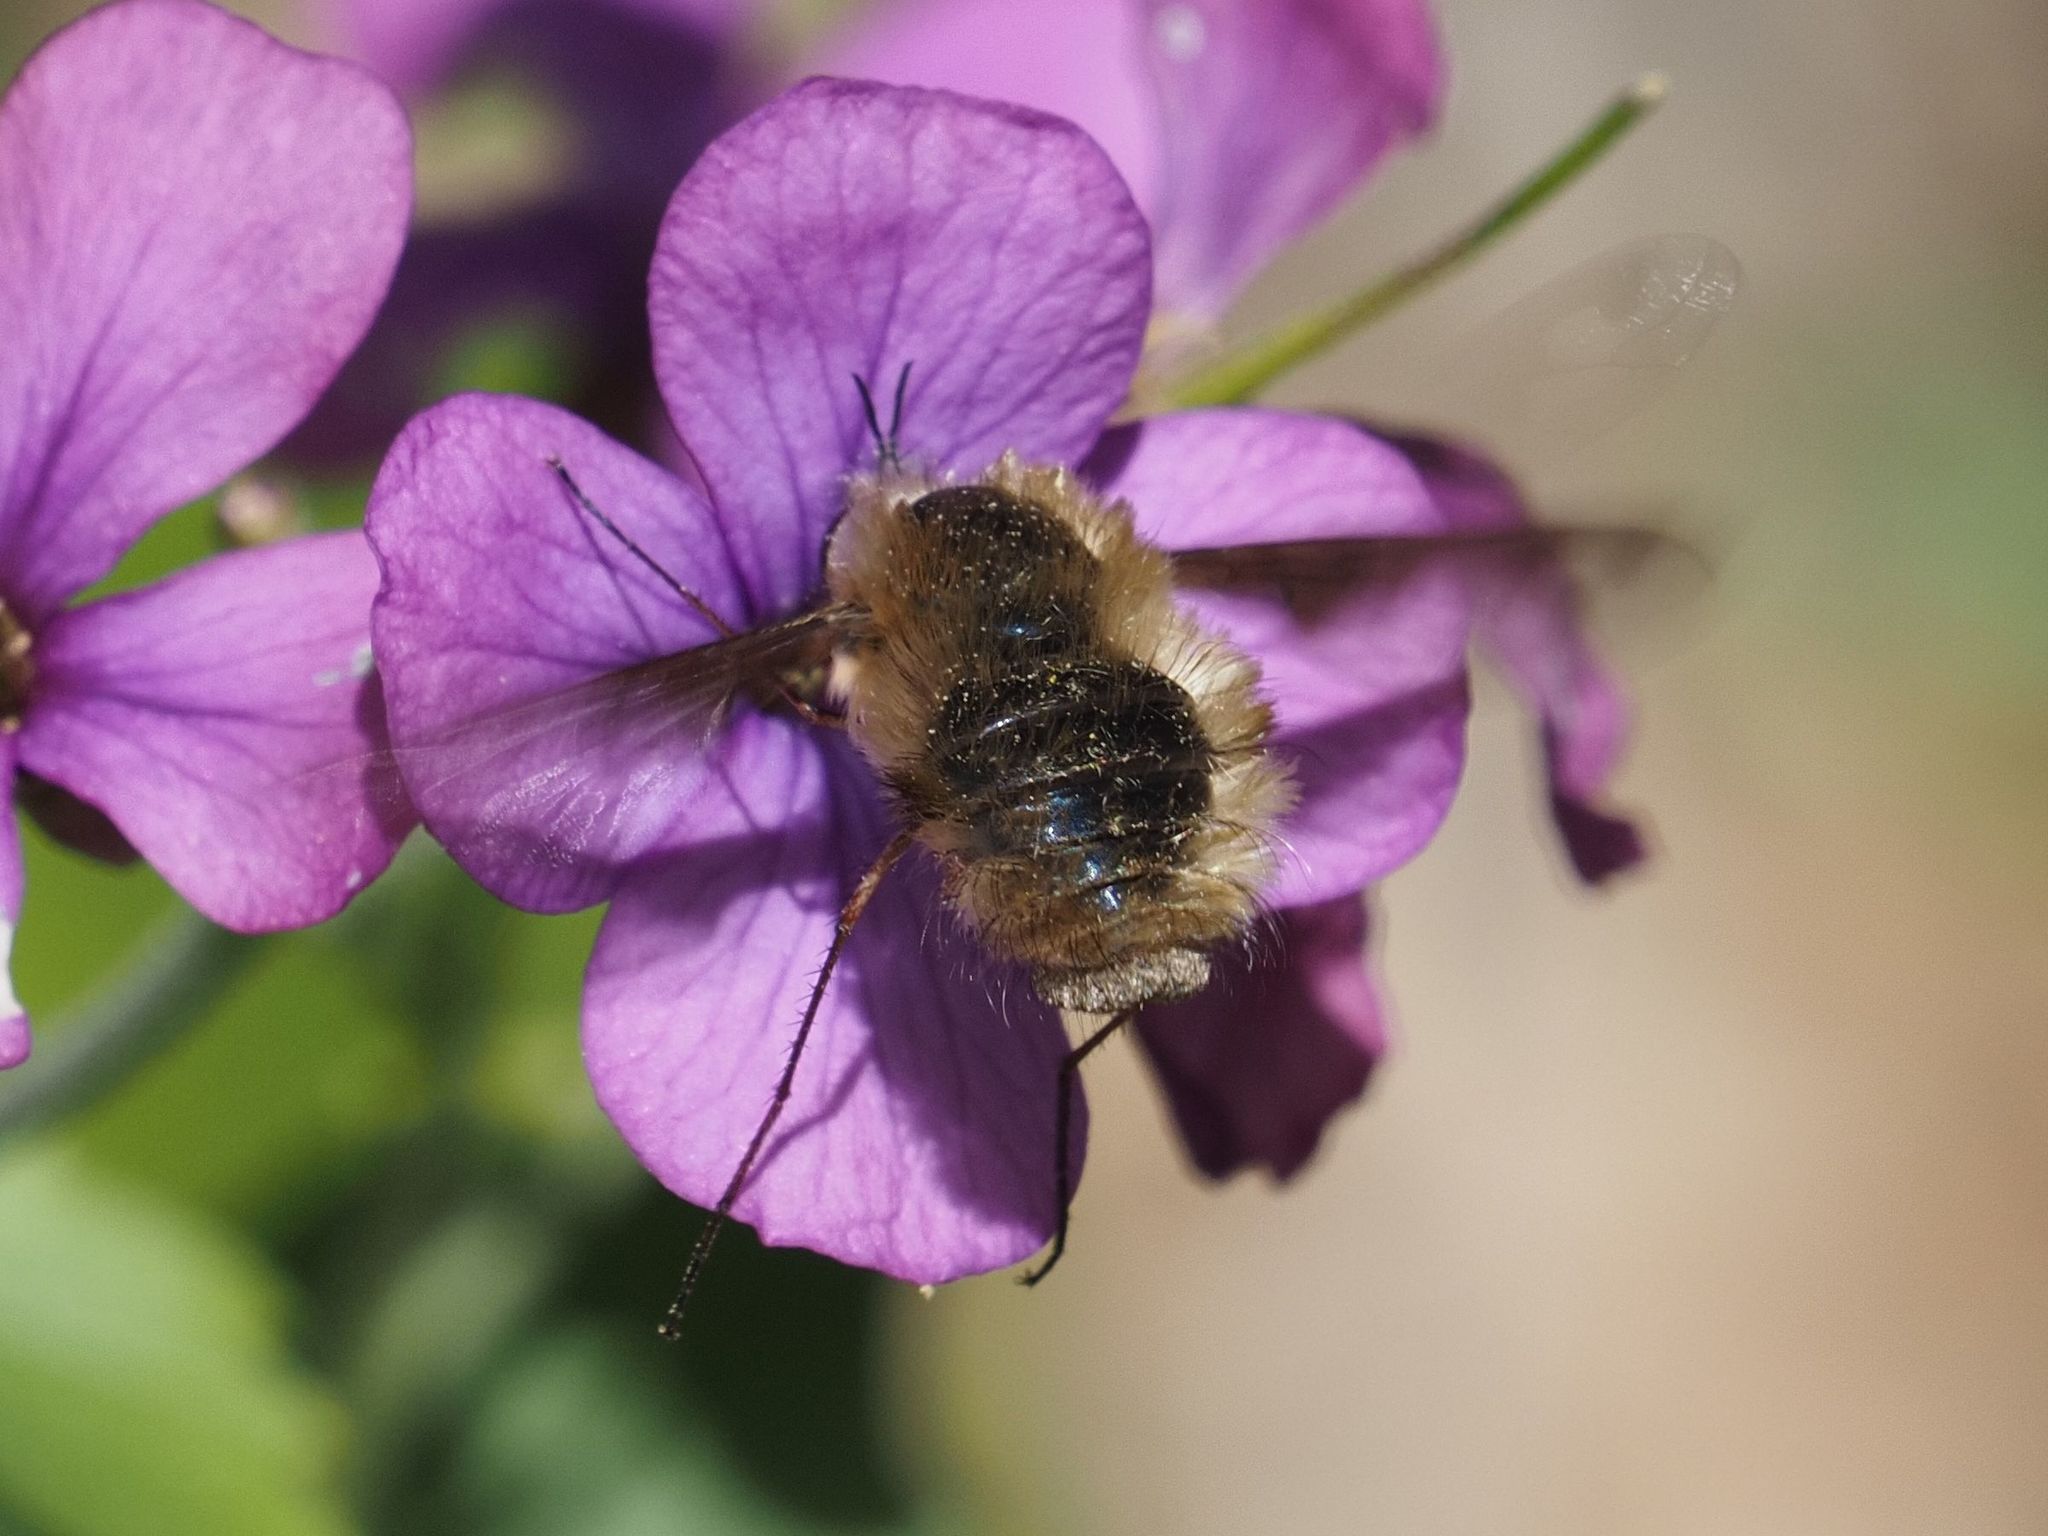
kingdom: Animalia
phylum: Arthropoda
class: Insecta
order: Diptera
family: Bombyliidae
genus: Bombylius
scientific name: Bombylius major
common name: Bee fly
